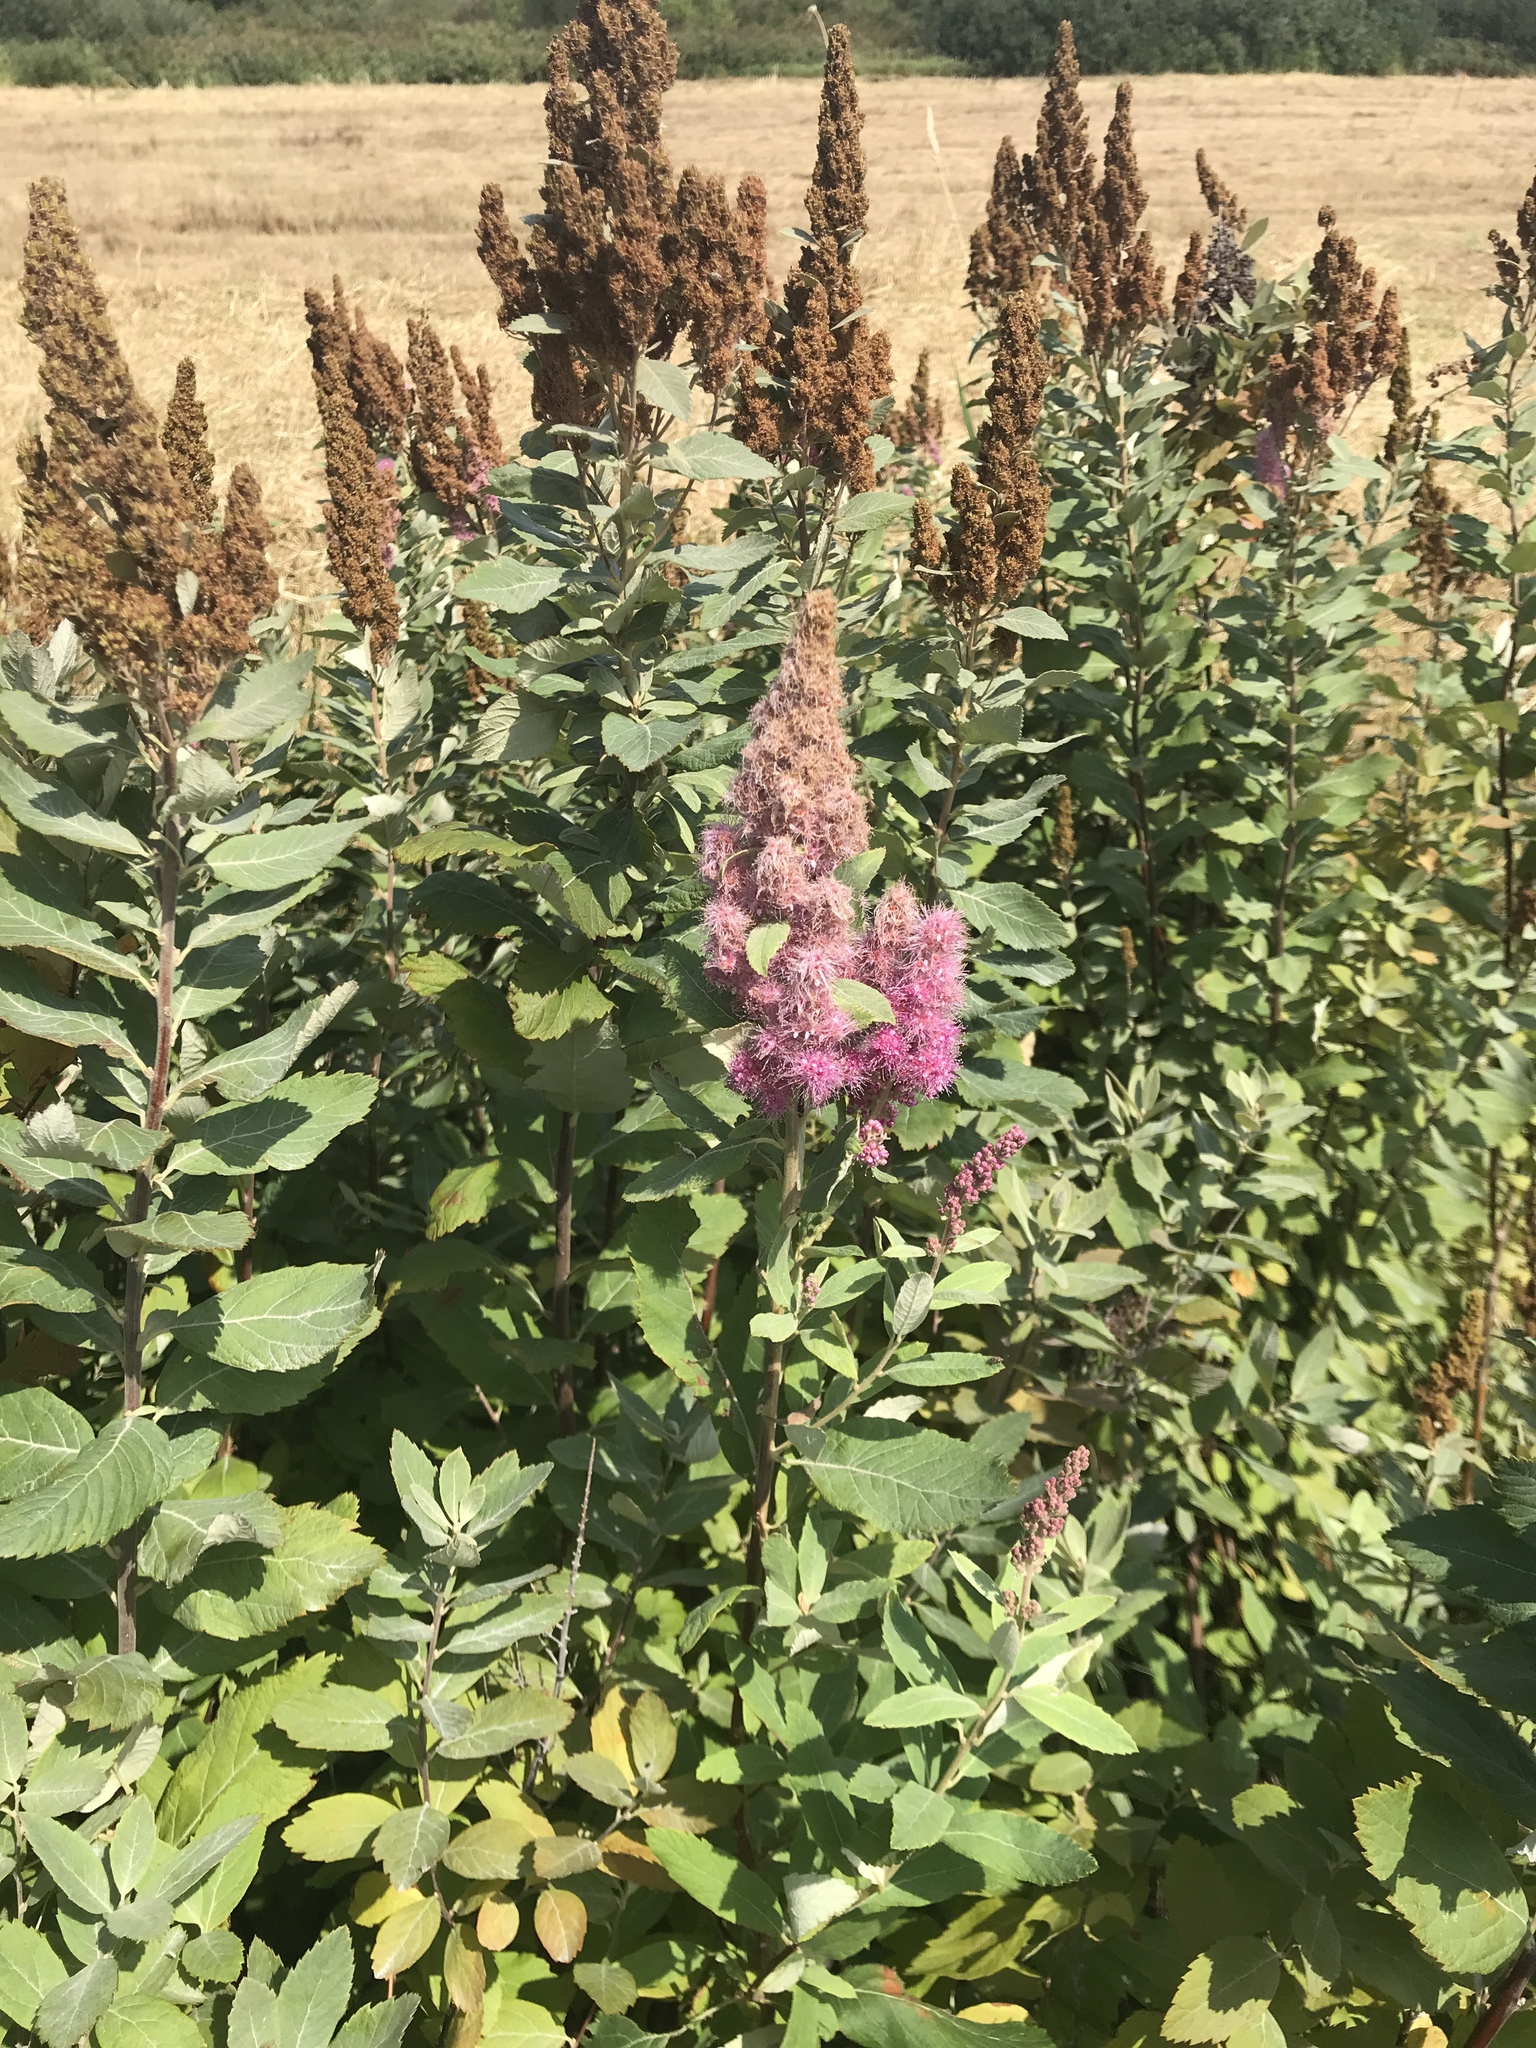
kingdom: Plantae
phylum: Tracheophyta
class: Magnoliopsida
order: Rosales
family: Rosaceae
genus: Spiraea
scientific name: Spiraea douglasii
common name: Steeplebush
